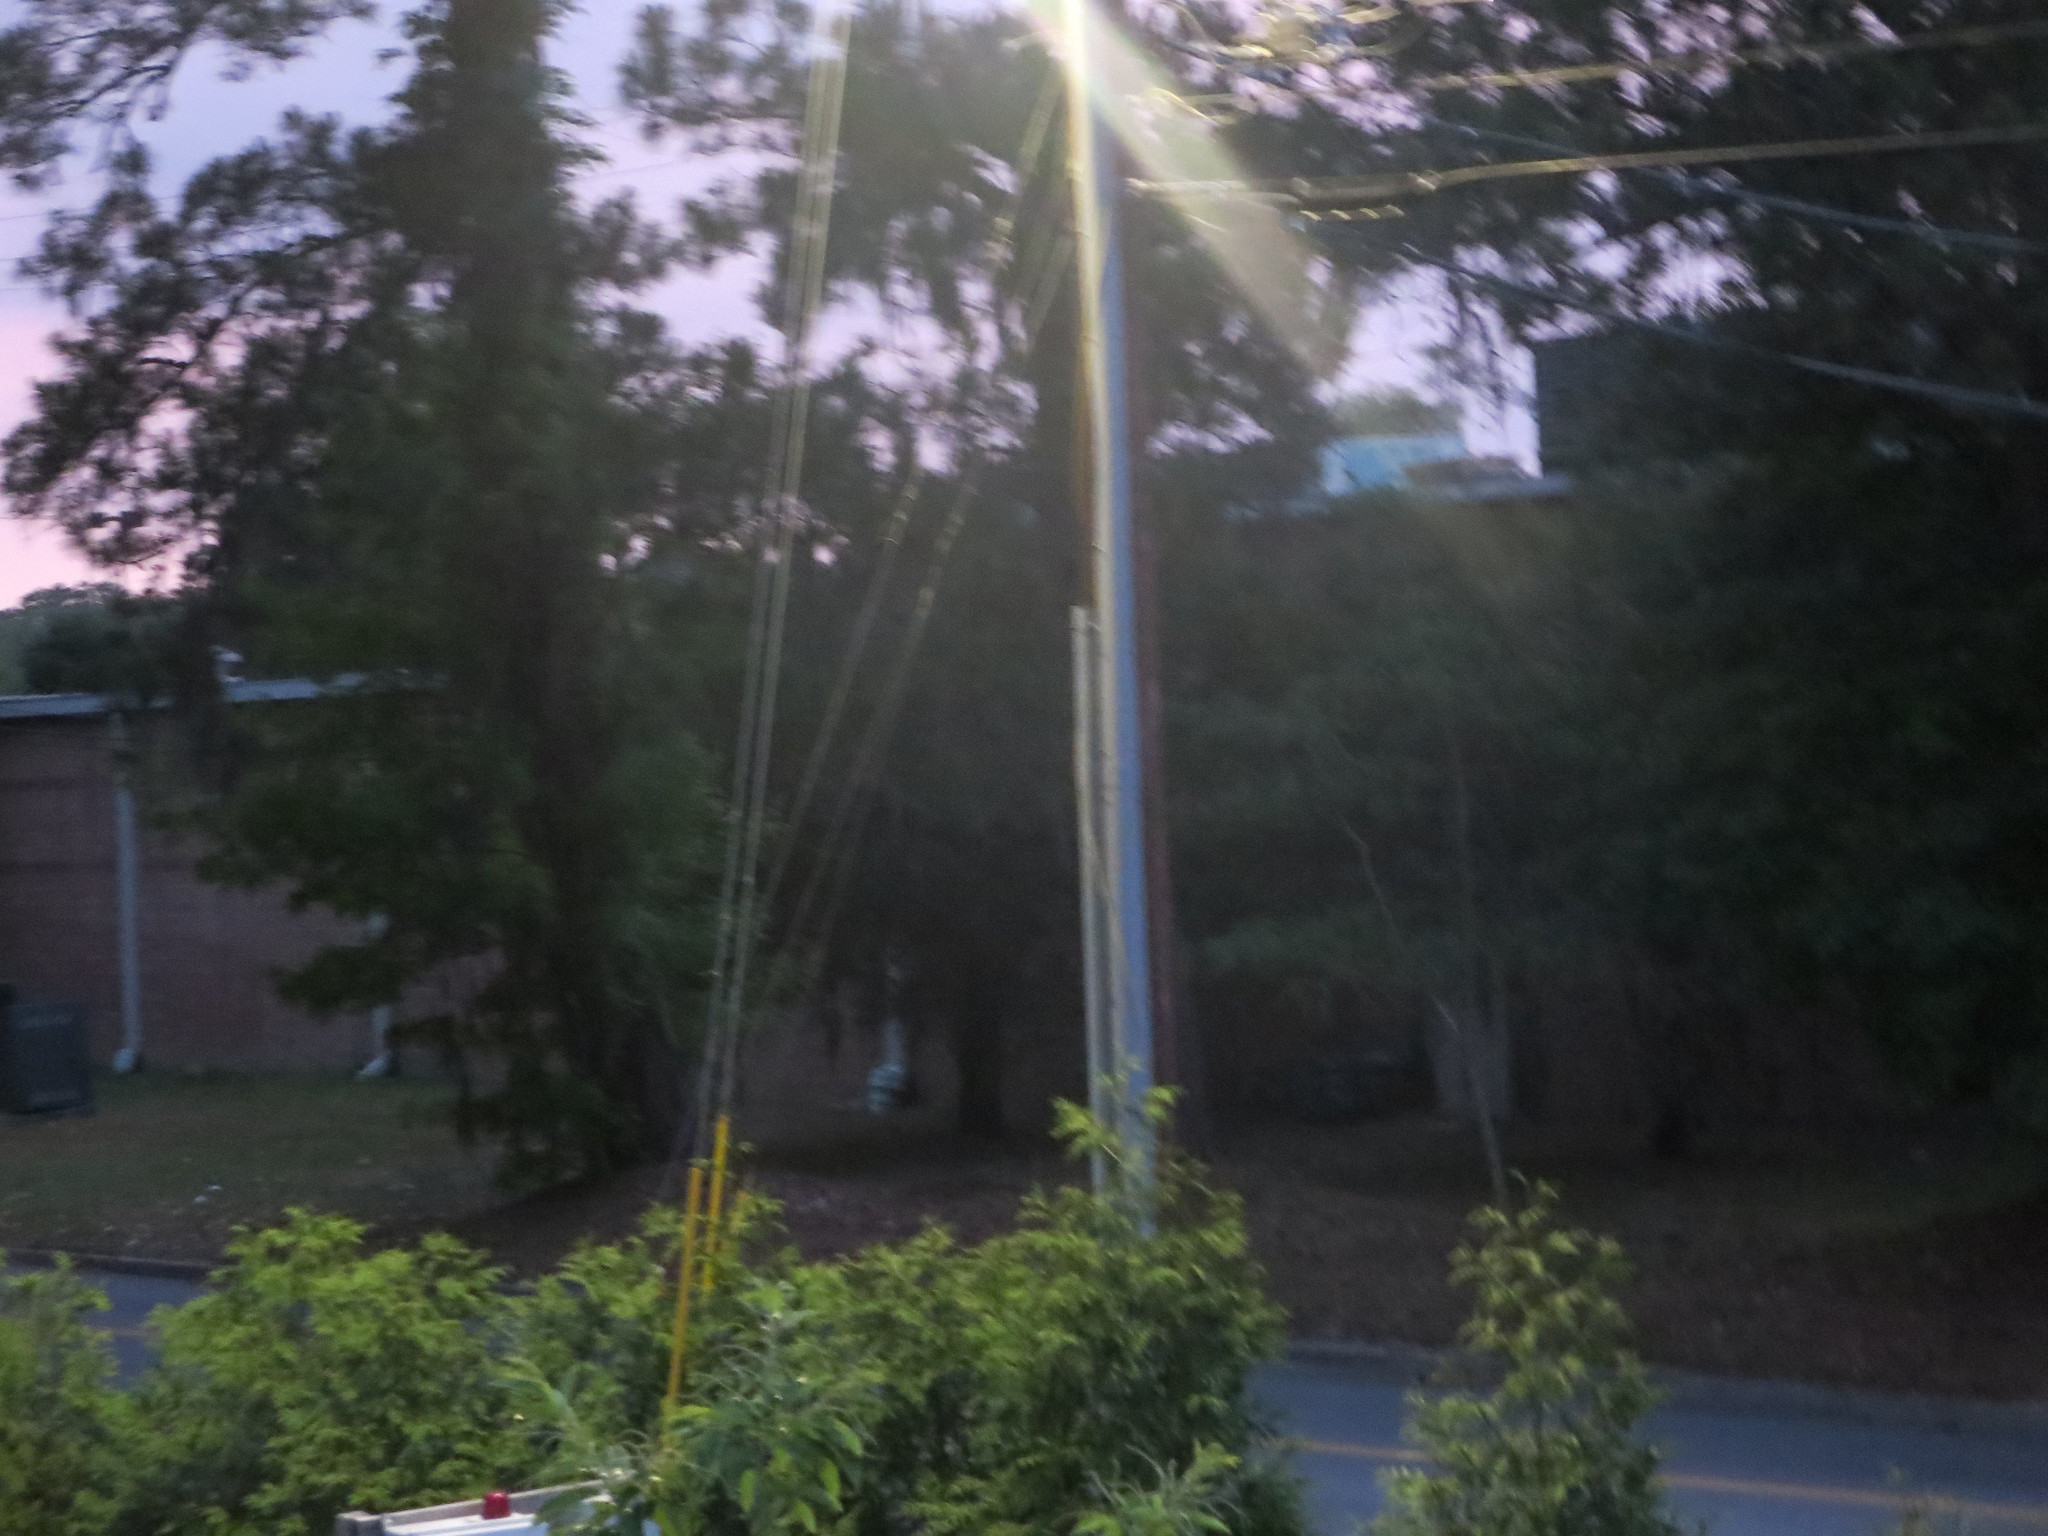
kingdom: Plantae
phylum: Tracheophyta
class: Pinopsida
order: Pinales
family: Pinaceae
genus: Pinus
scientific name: Pinus
